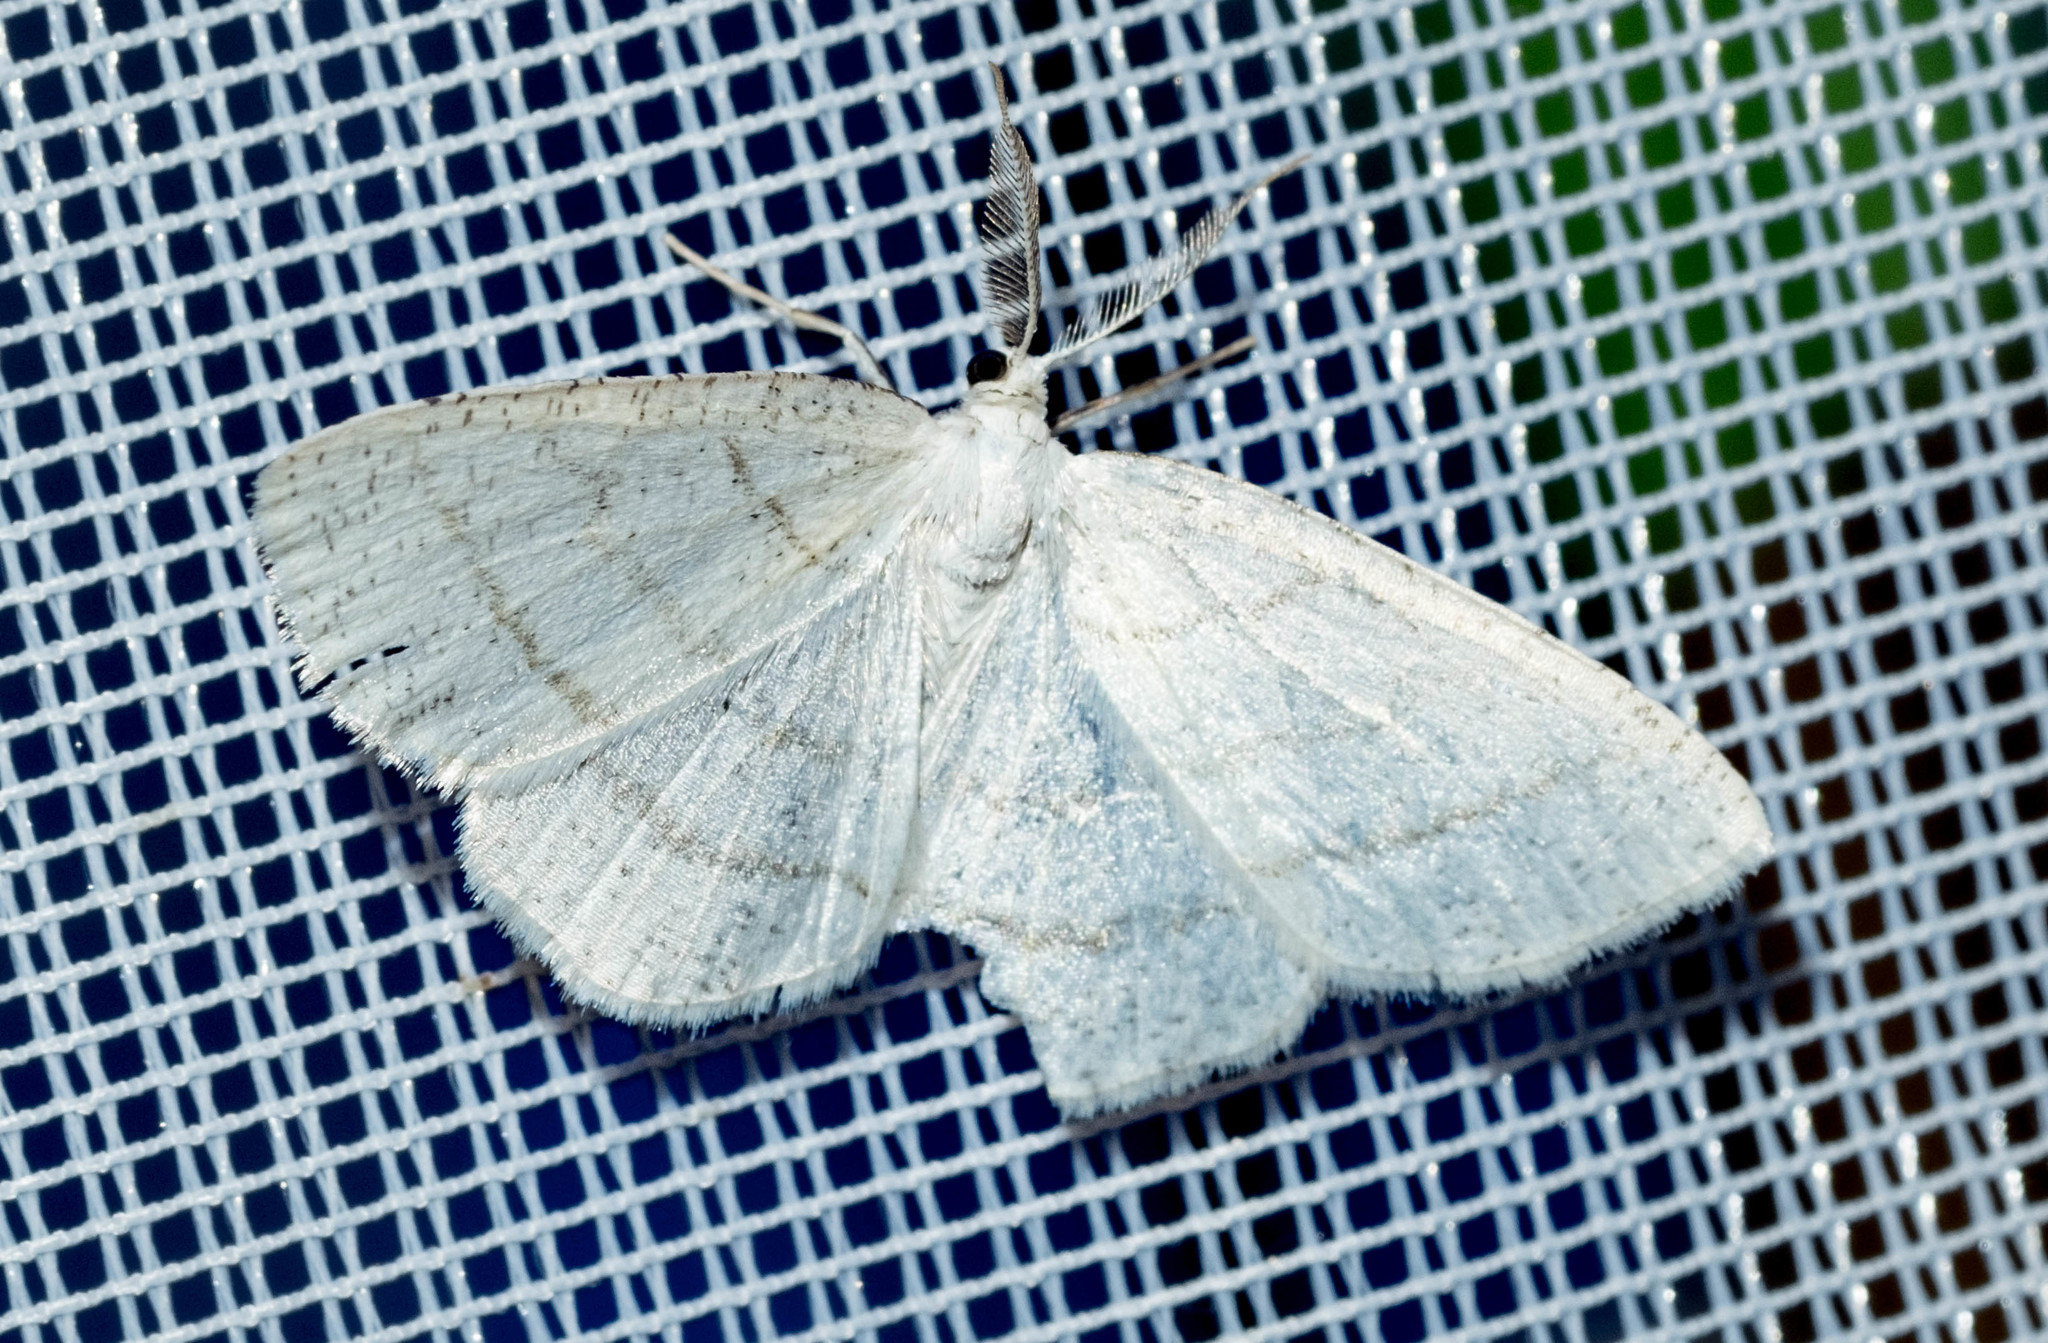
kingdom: Animalia
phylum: Arthropoda
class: Insecta
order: Lepidoptera
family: Geometridae
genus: Cabera
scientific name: Cabera pusaria
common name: Common white wave
